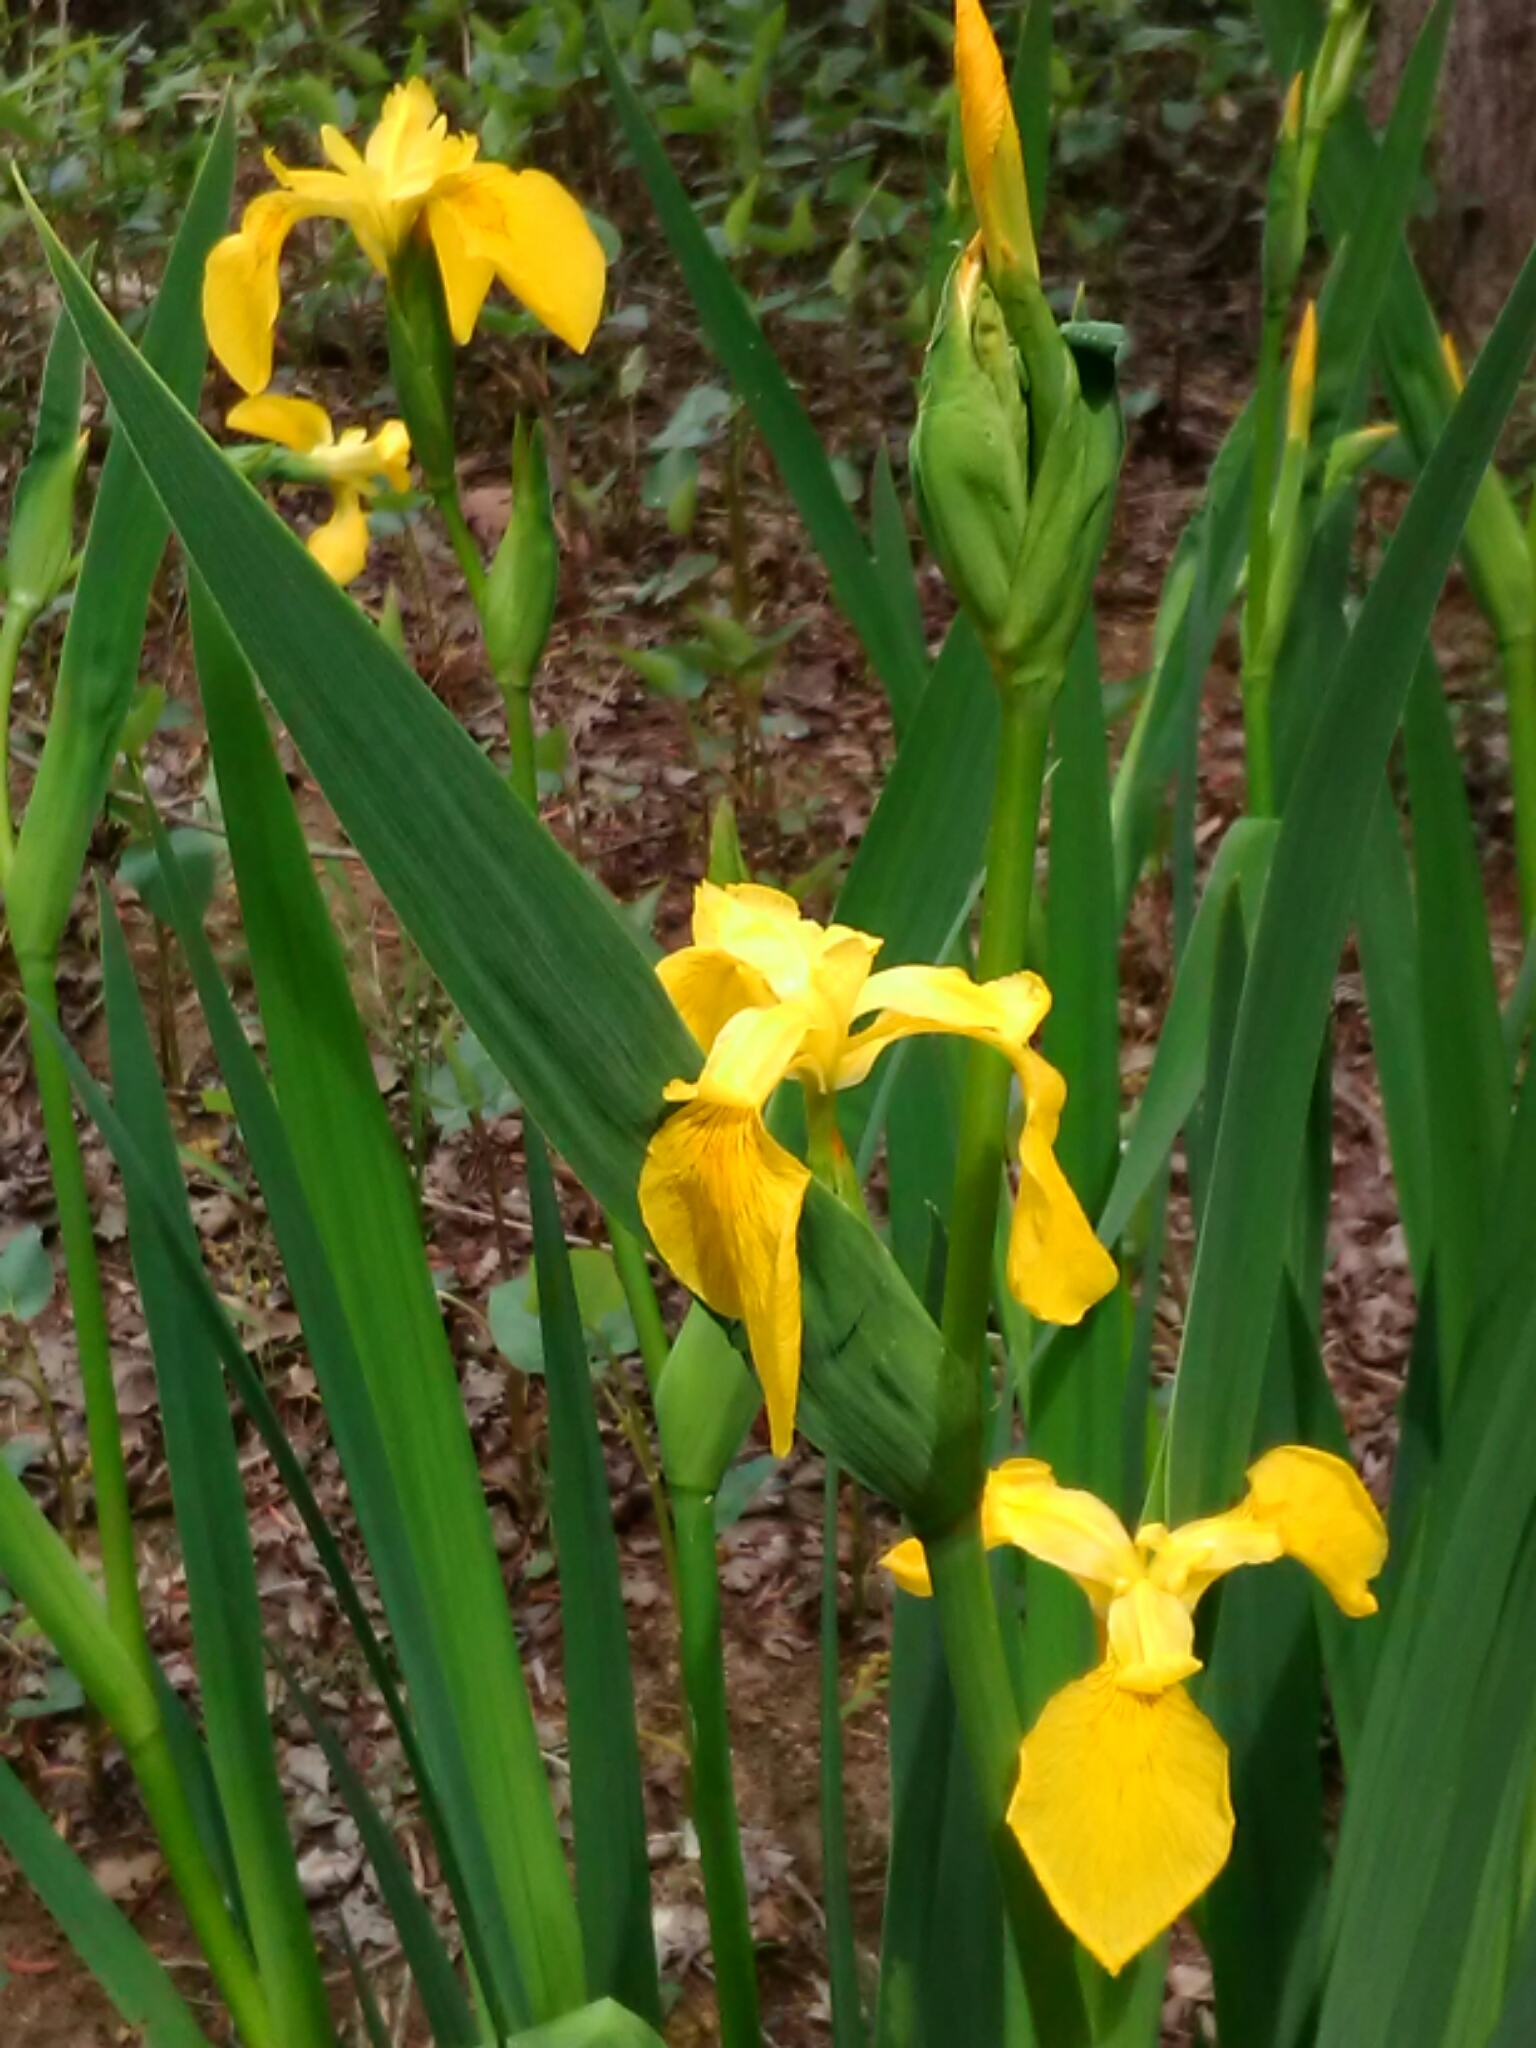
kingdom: Plantae
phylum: Tracheophyta
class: Liliopsida
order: Asparagales
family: Iridaceae
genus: Iris
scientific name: Iris pseudacorus
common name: Yellow flag
